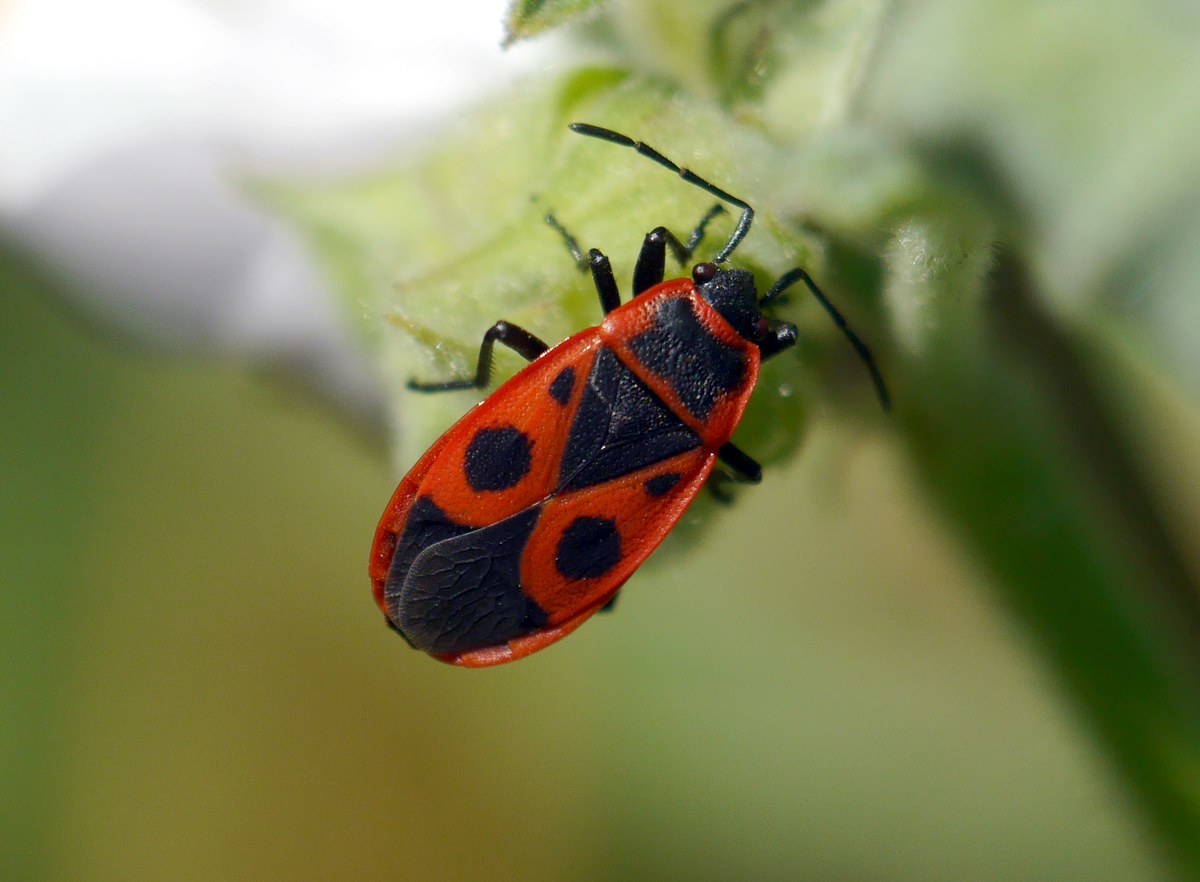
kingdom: Animalia
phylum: Arthropoda
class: Insecta
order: Hemiptera
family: Pyrrhocoridae
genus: Pyrrhocoris
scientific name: Pyrrhocoris apterus
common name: Firebug
